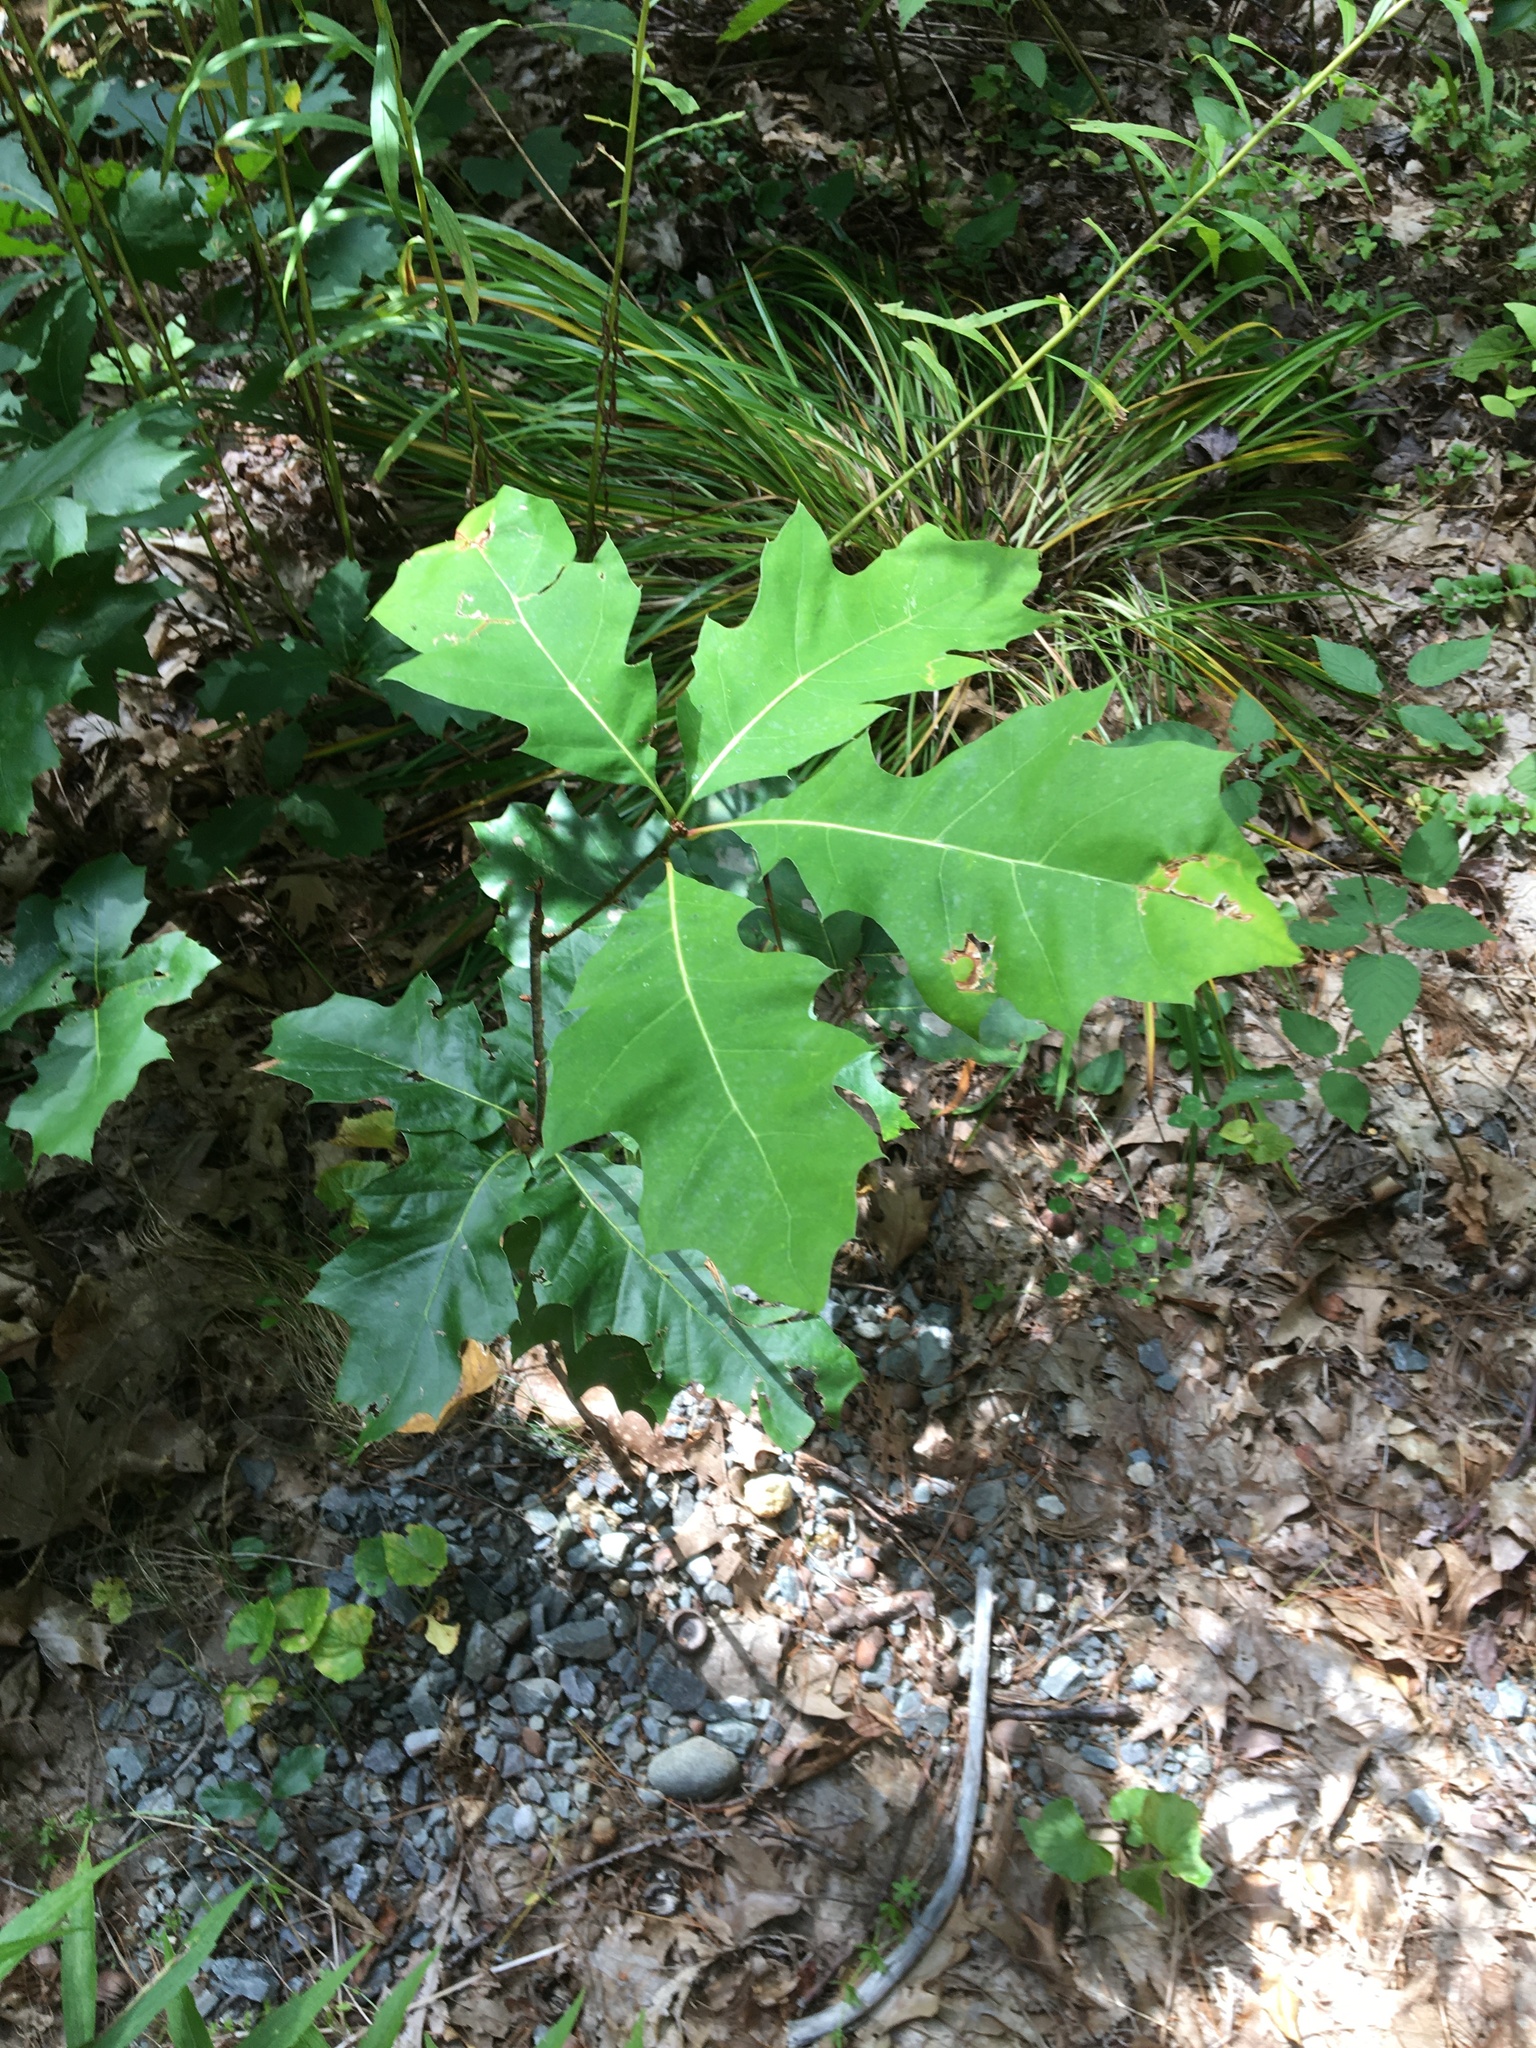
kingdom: Plantae
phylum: Tracheophyta
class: Magnoliopsida
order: Fagales
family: Fagaceae
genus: Quercus
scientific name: Quercus rubra
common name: Red oak
